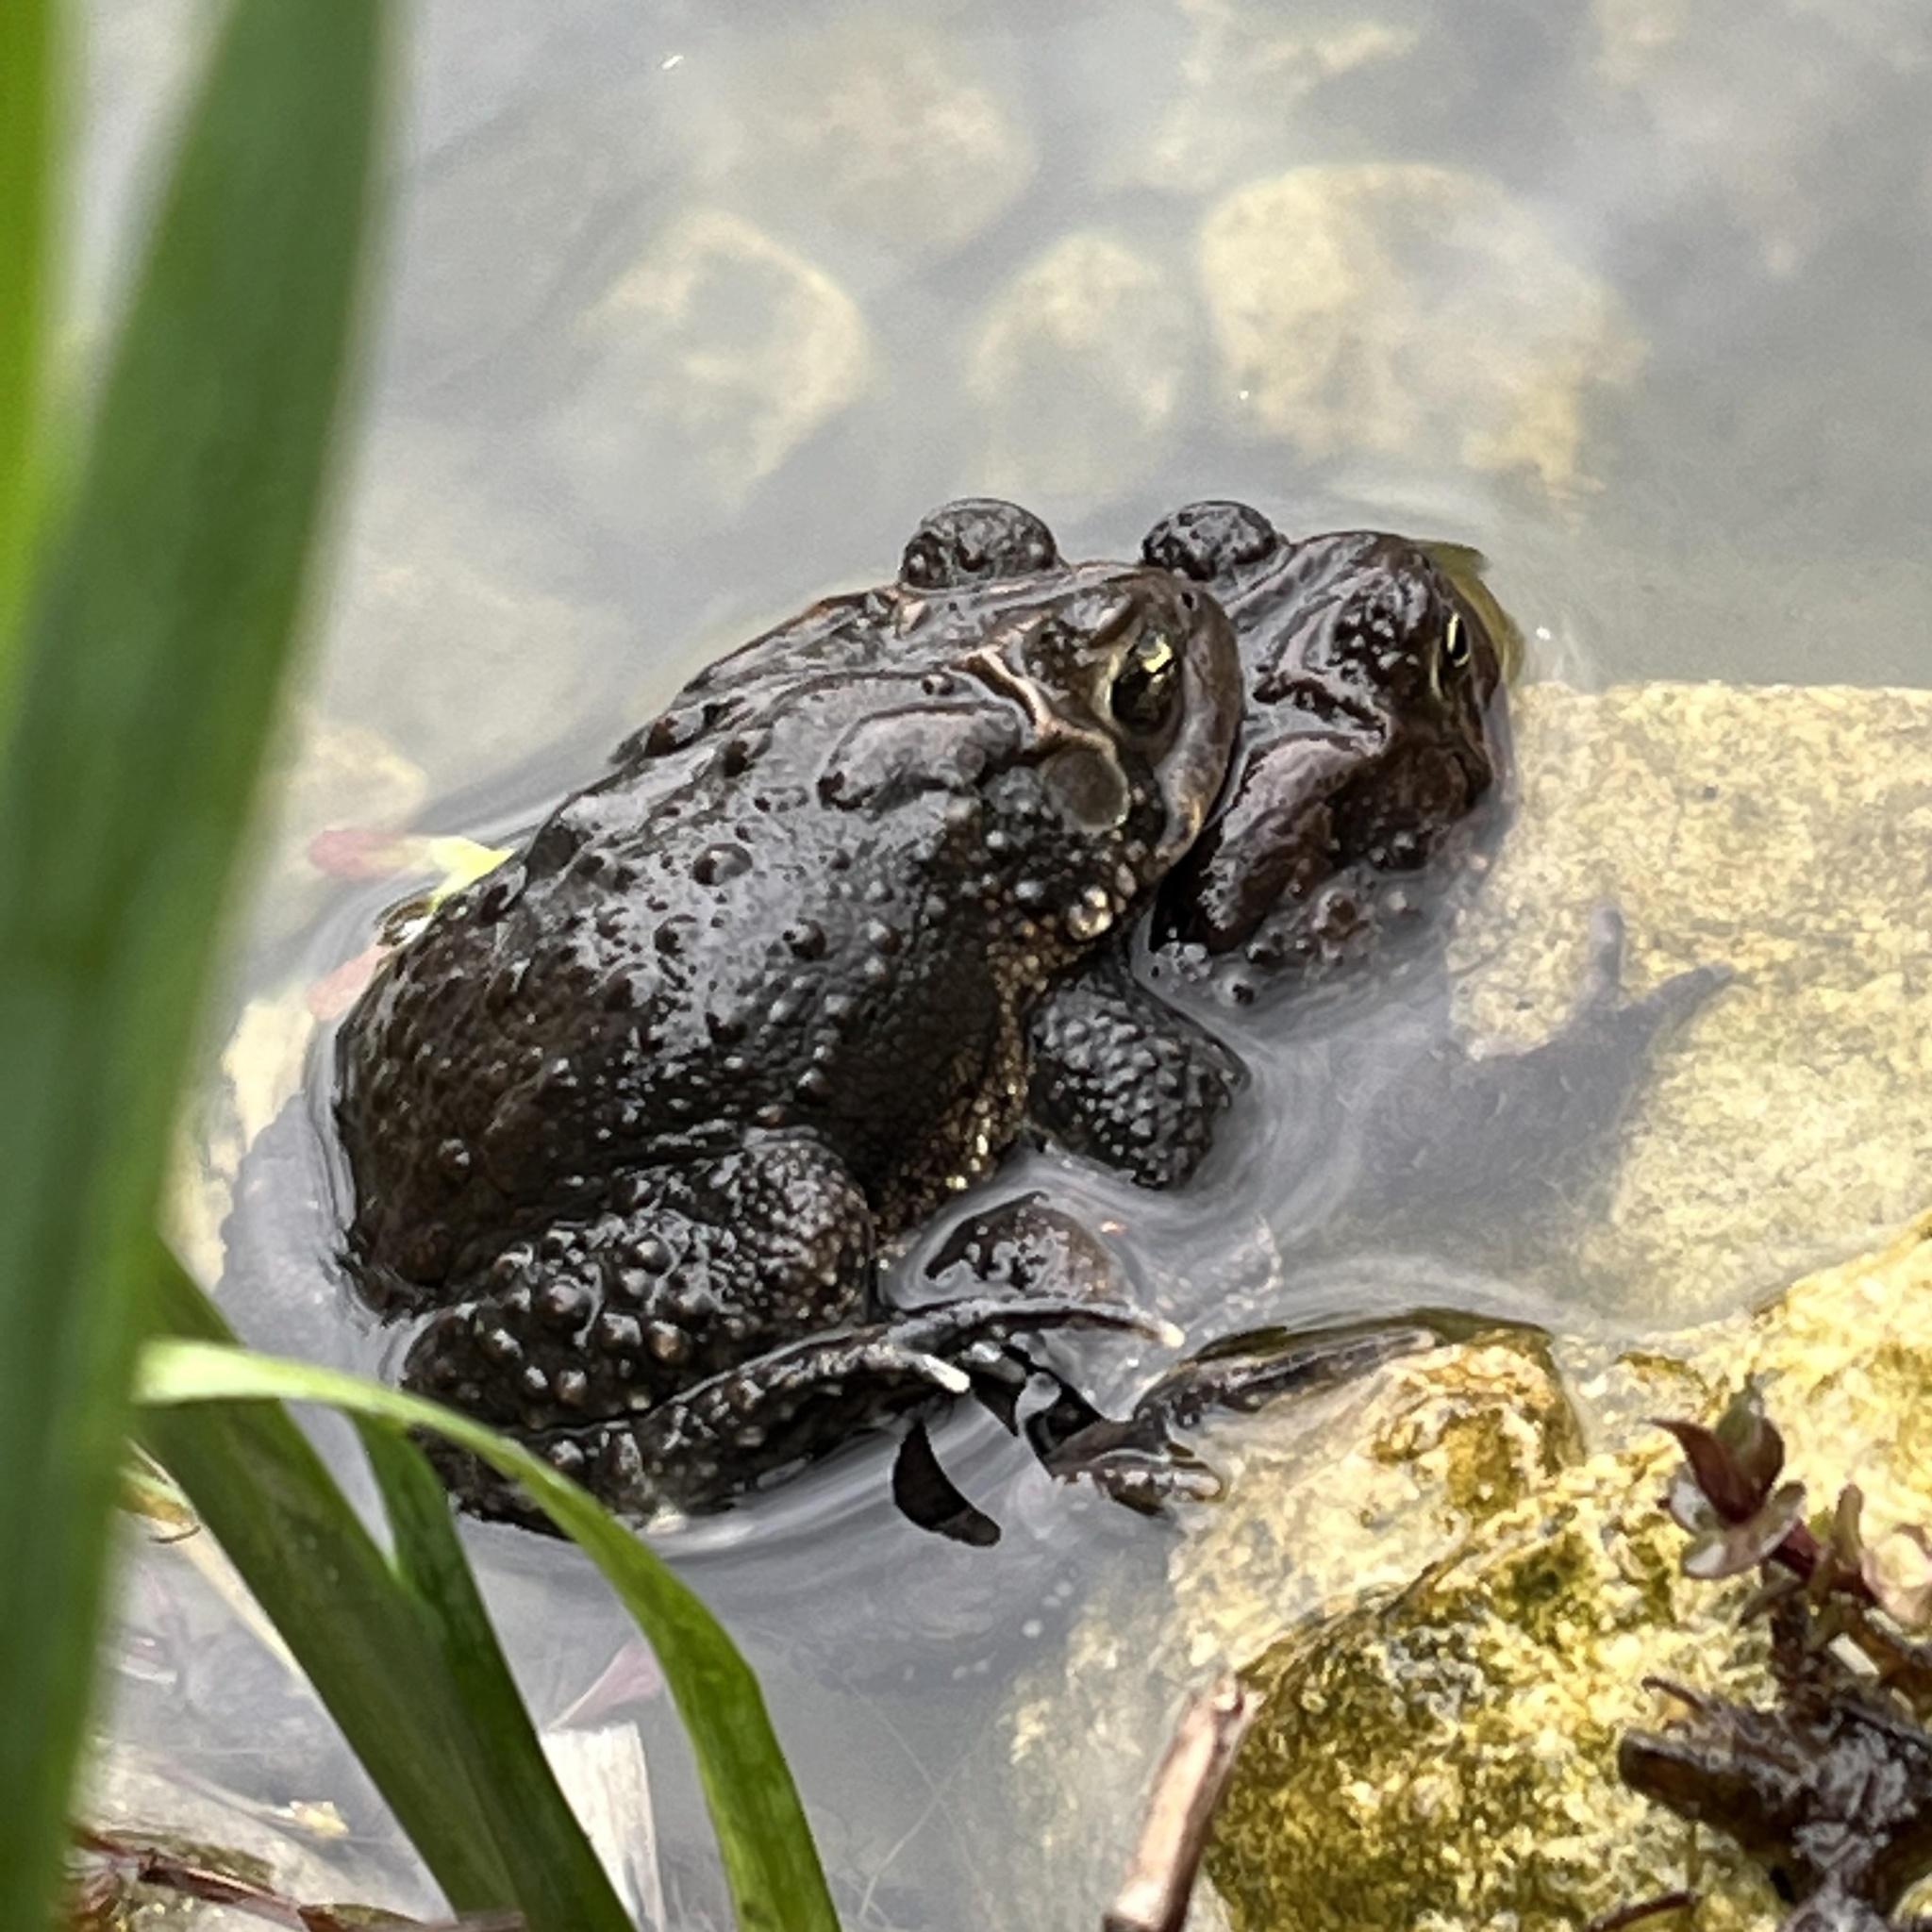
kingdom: Animalia
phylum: Chordata
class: Amphibia
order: Anura
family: Bufonidae
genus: Anaxyrus
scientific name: Anaxyrus americanus
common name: American toad
